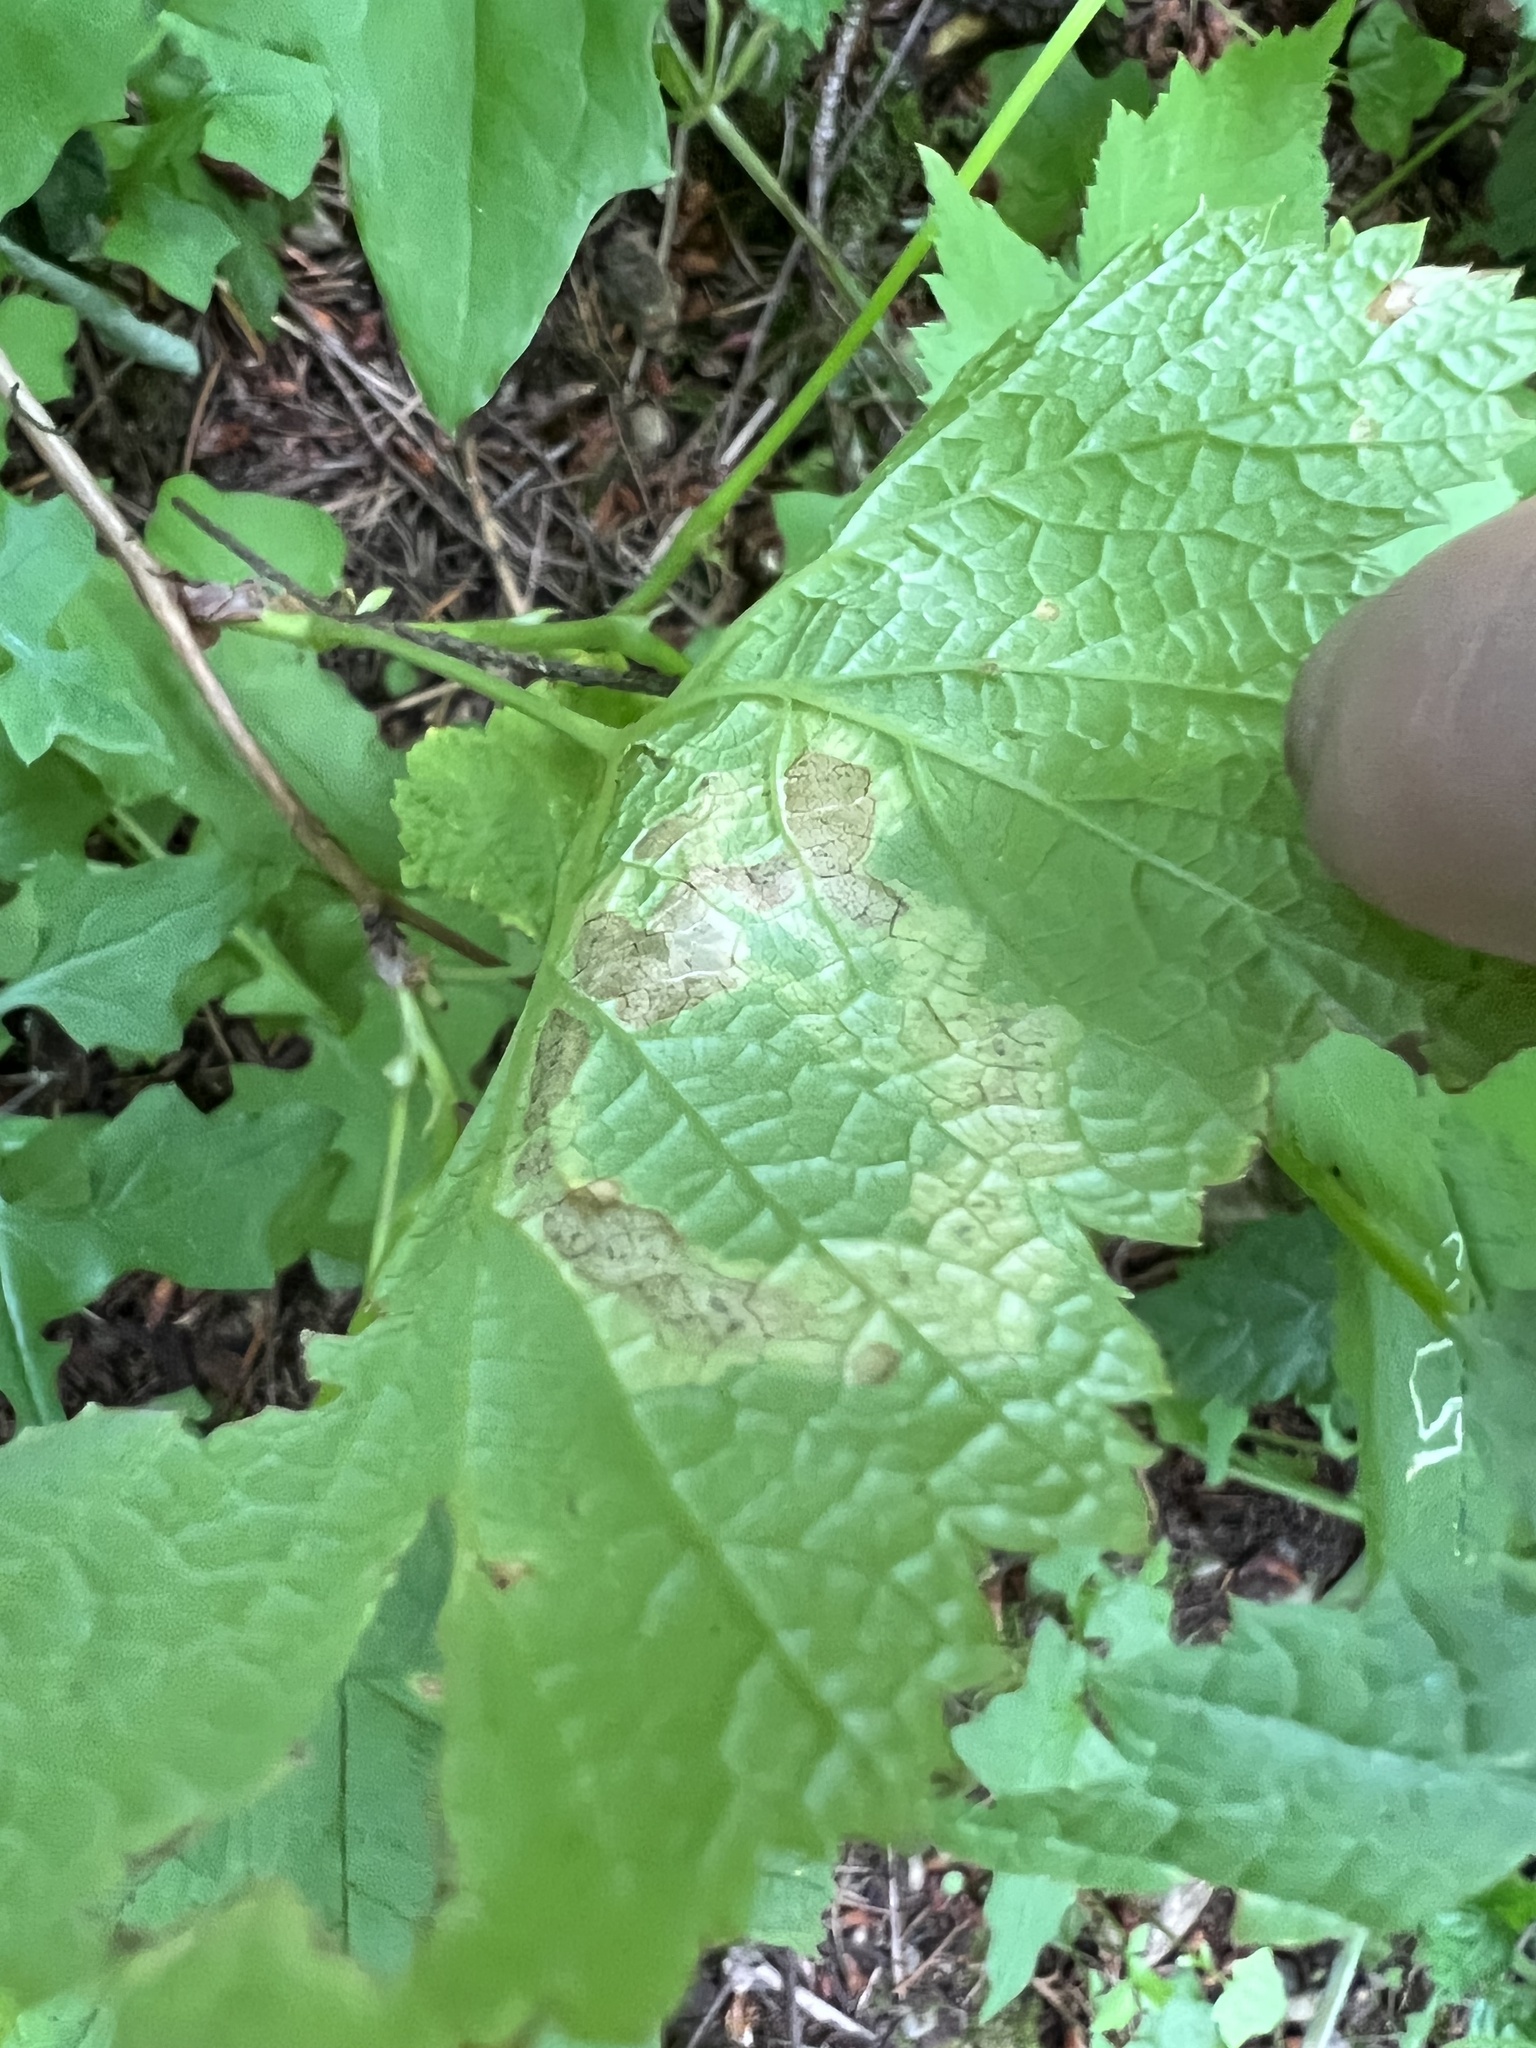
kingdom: Animalia
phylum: Arthropoda
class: Insecta
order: Diptera
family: Agromyzidae
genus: Agromyza
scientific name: Agromyza vockerothi
